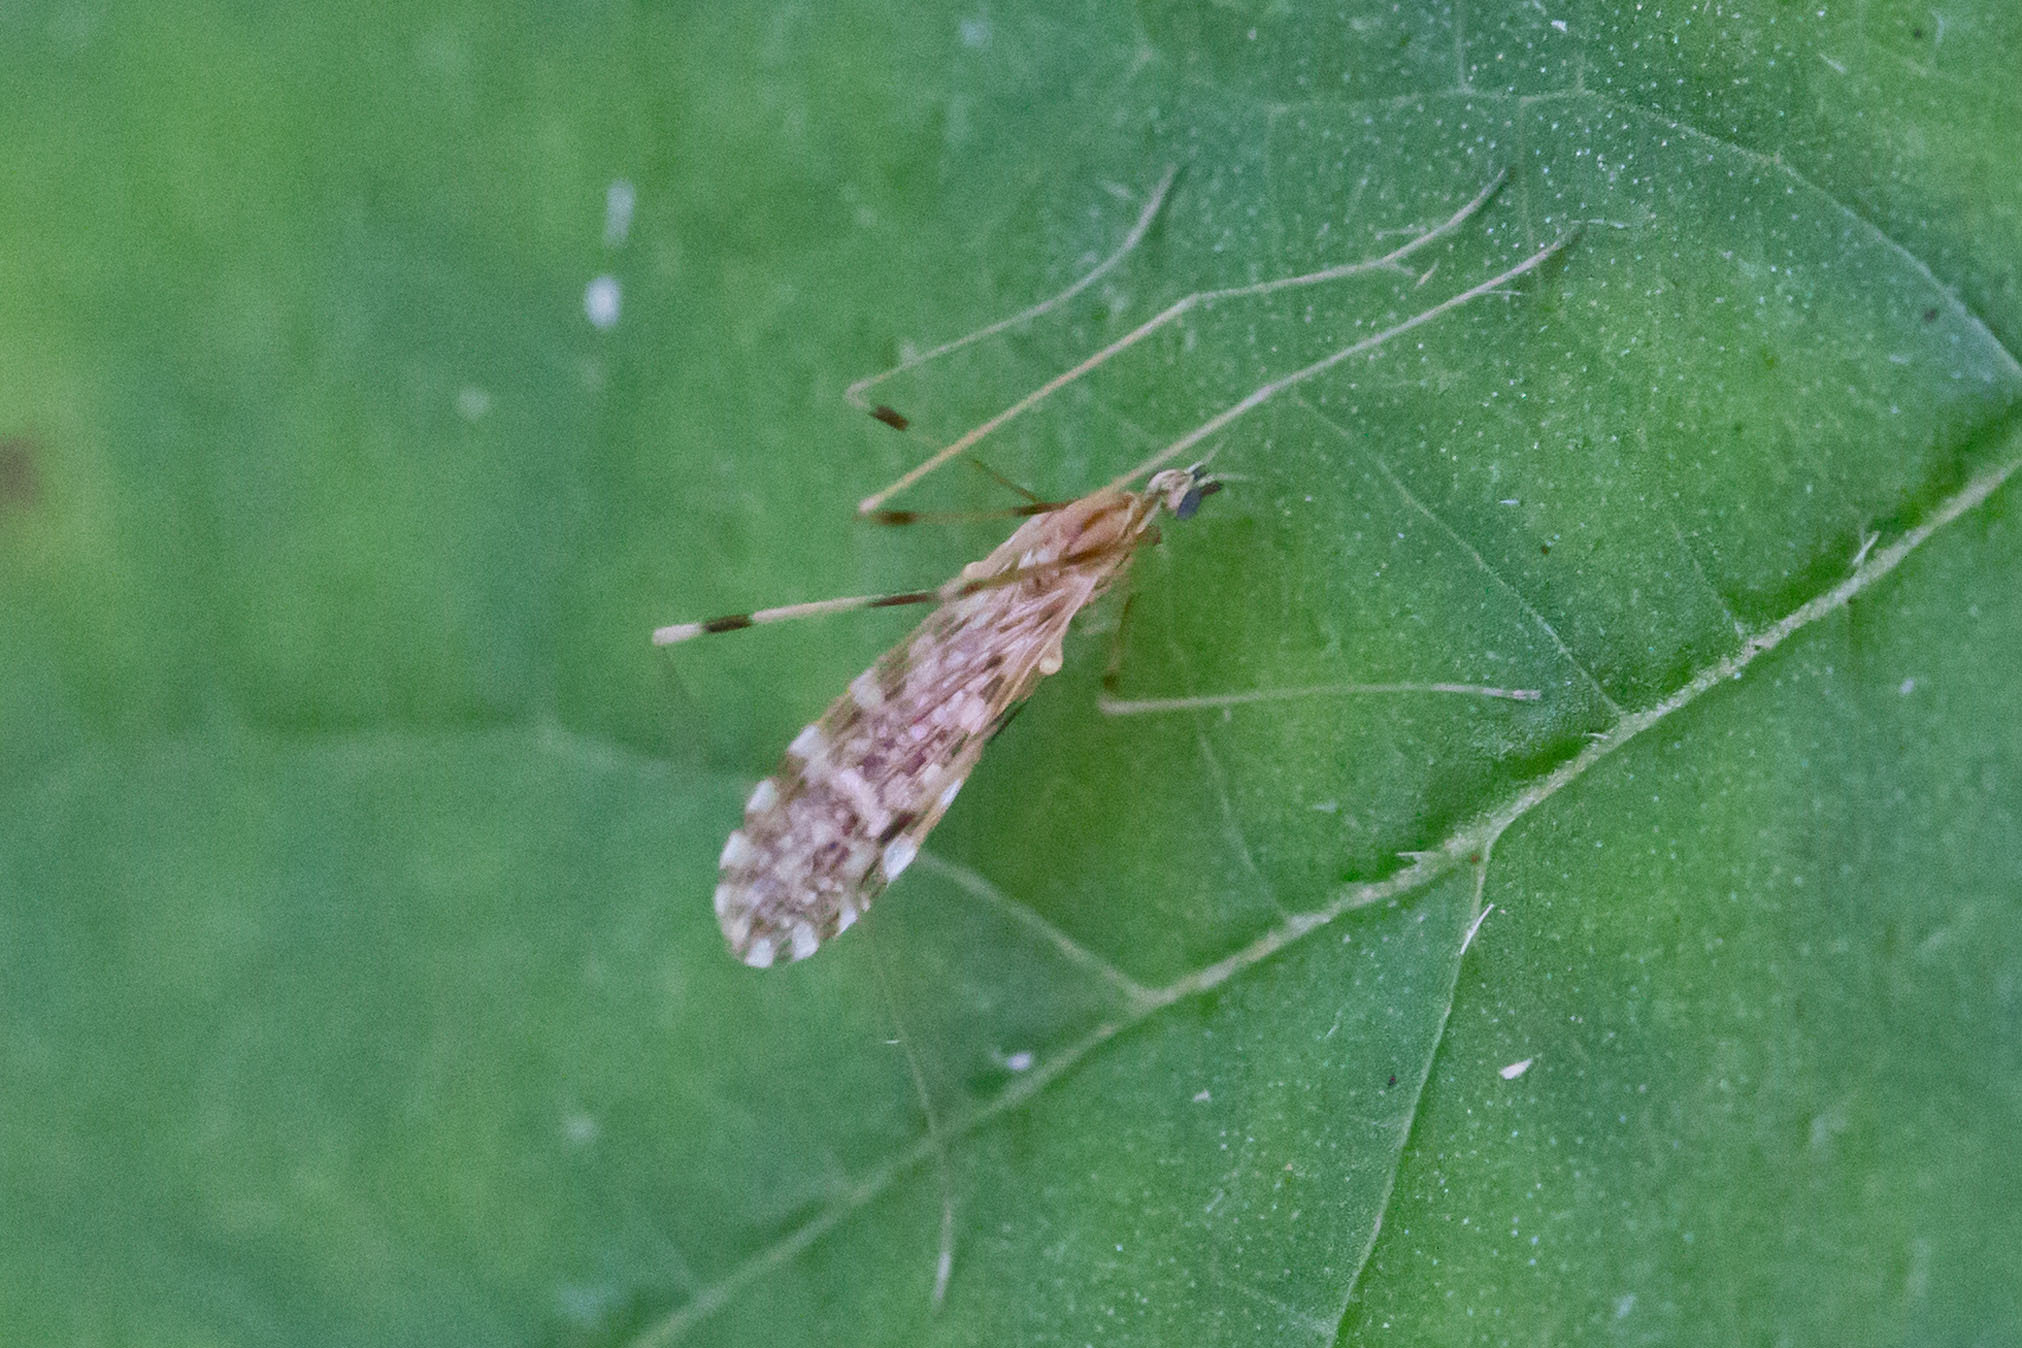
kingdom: Animalia
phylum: Arthropoda
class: Insecta
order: Diptera
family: Limoniidae
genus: Erioptera
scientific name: Erioptera caliptera
